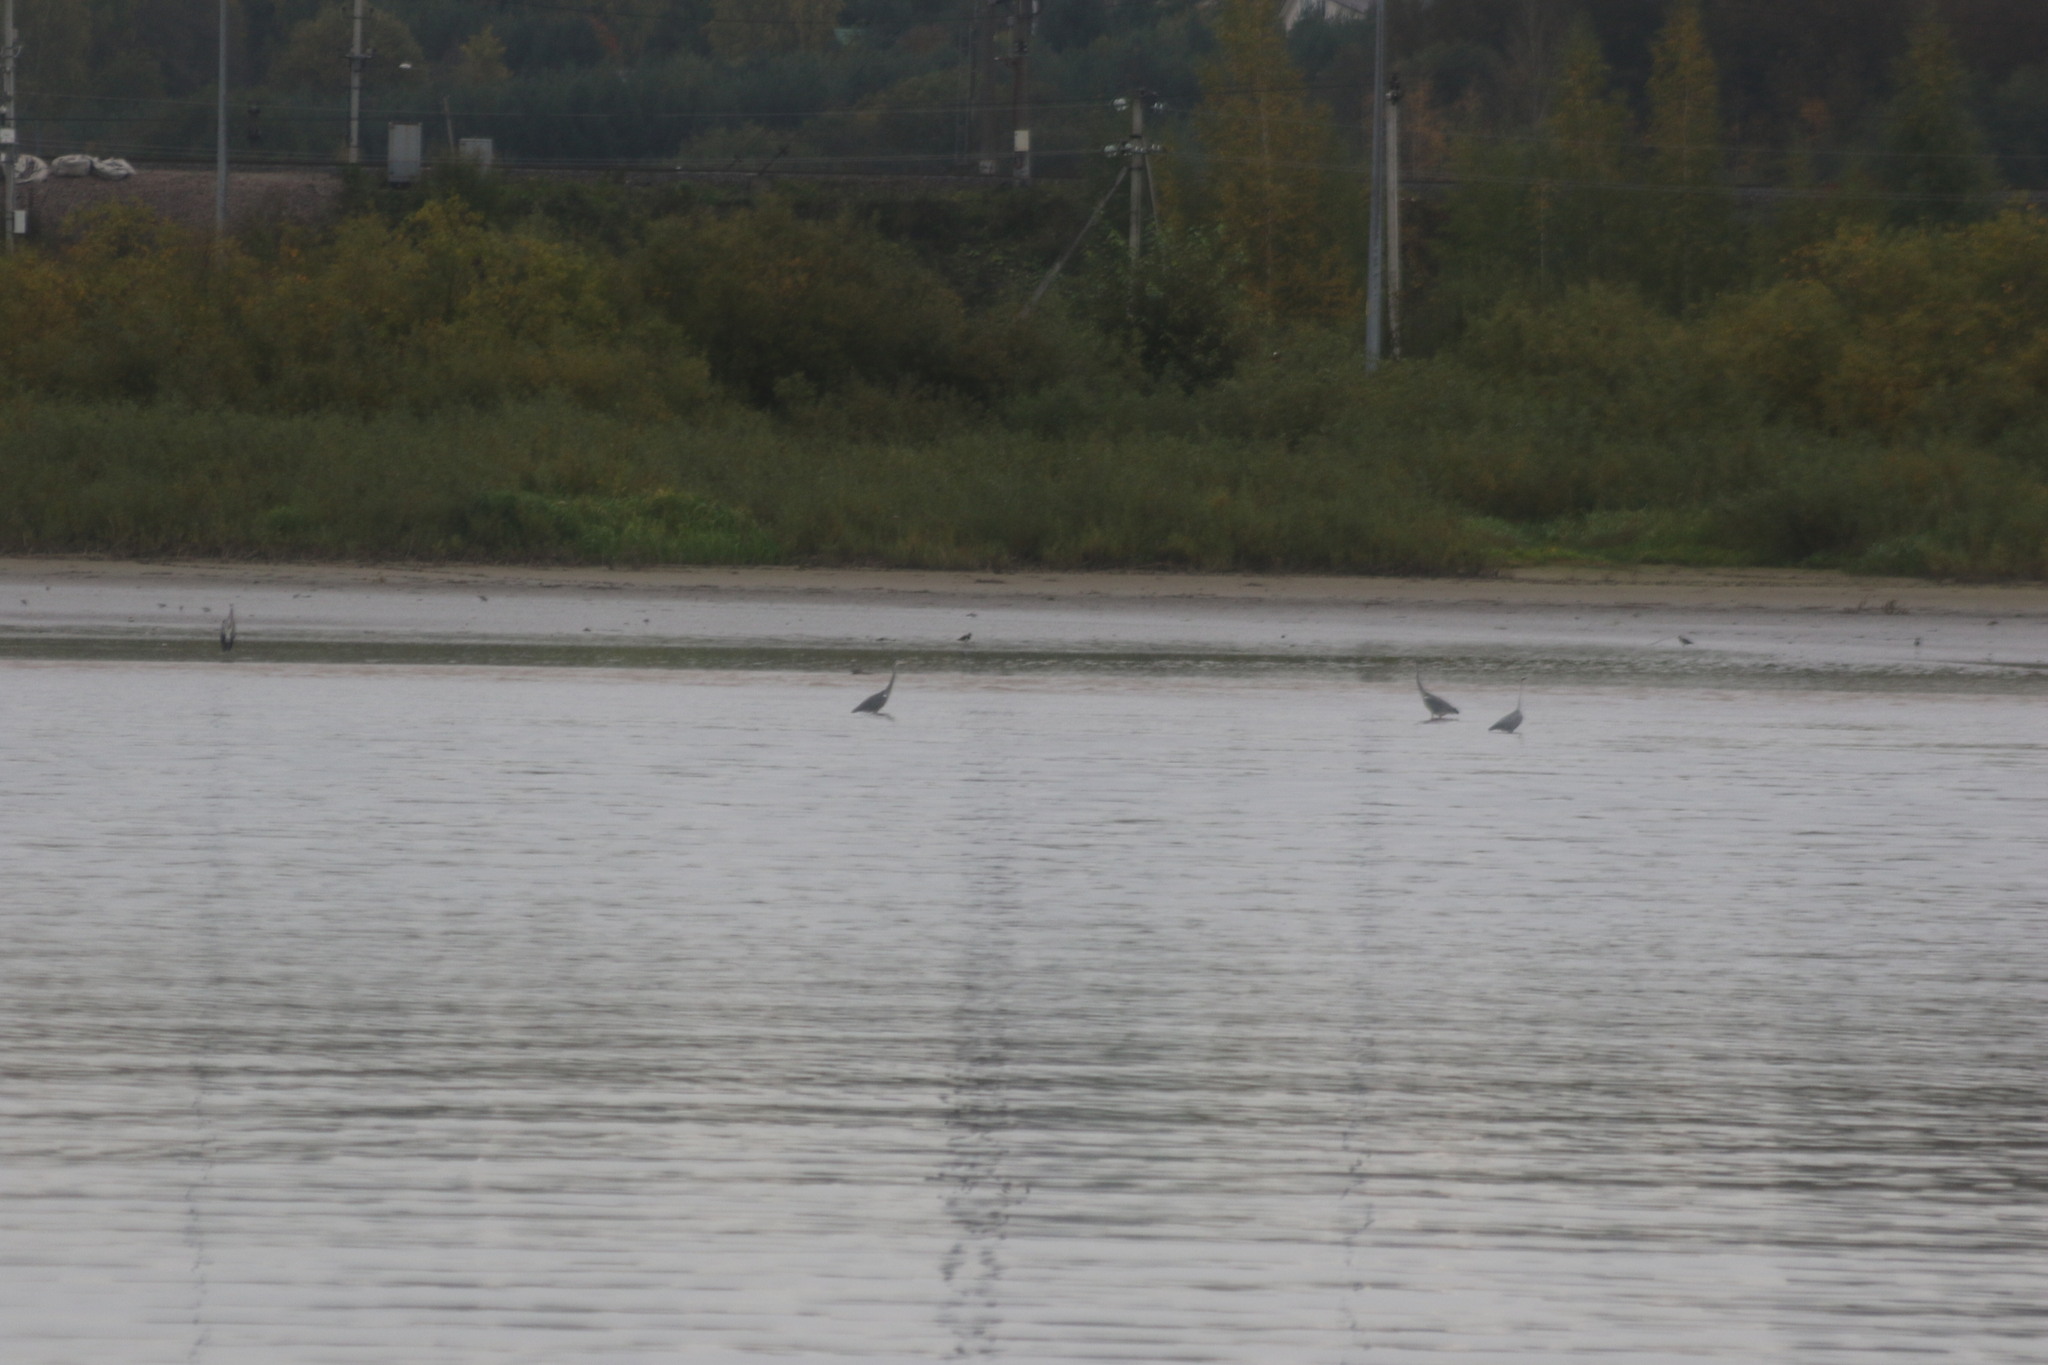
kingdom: Animalia
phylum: Chordata
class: Aves
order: Pelecaniformes
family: Ardeidae
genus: Ardea
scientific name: Ardea cinerea
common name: Grey heron
